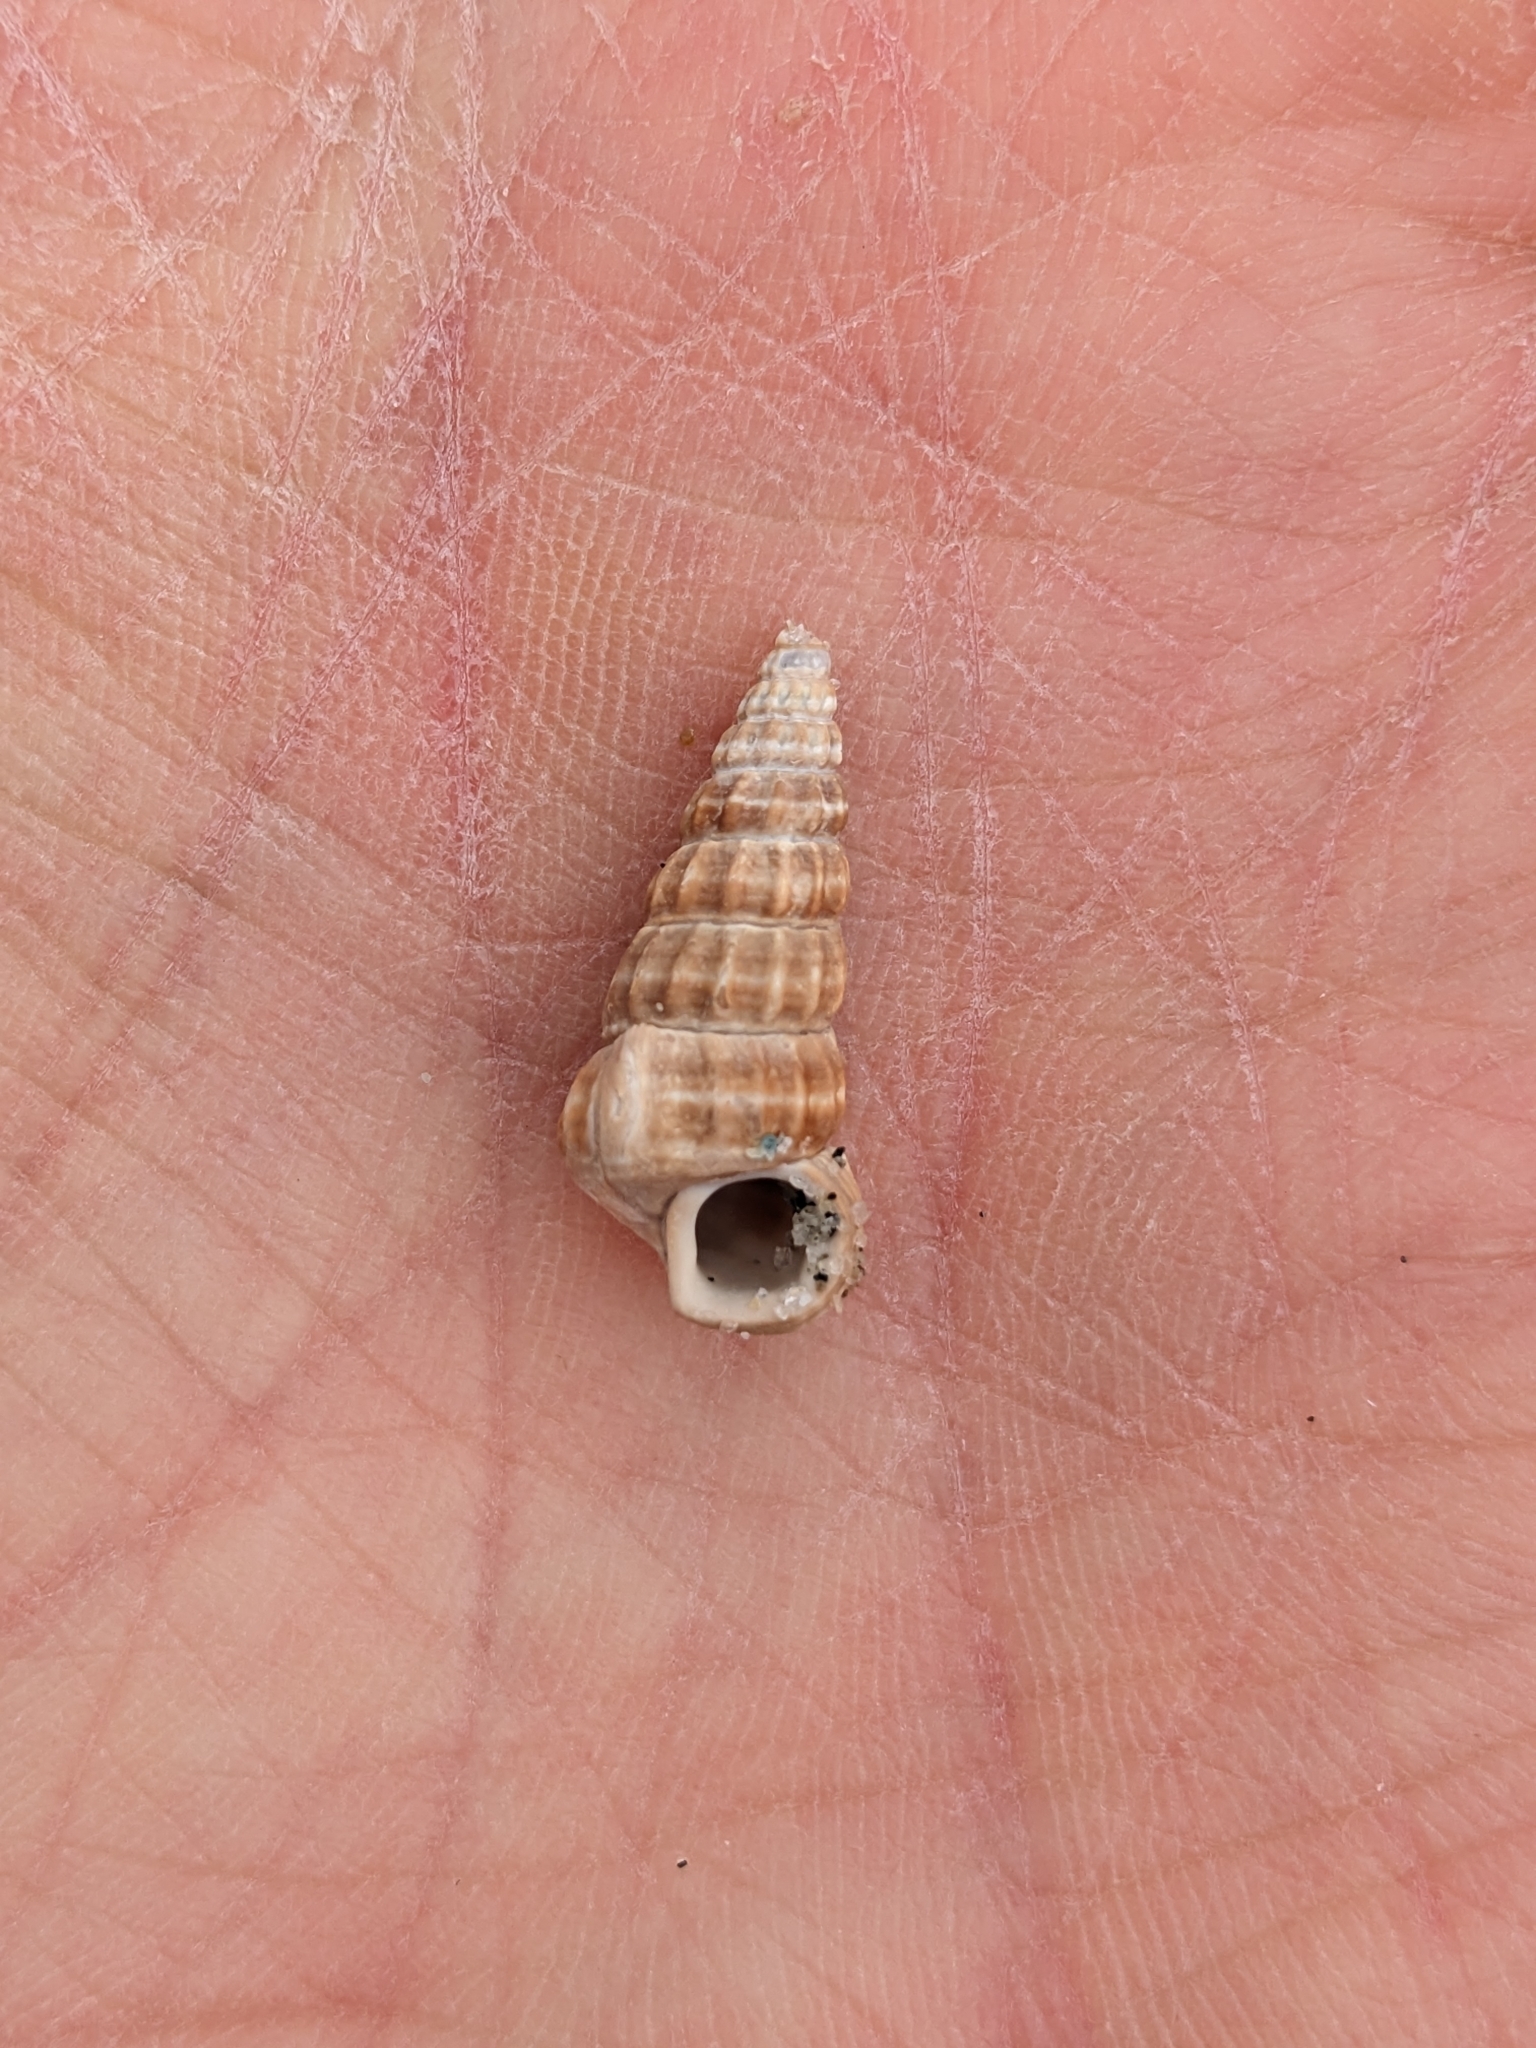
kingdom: Animalia
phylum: Mollusca
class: Gastropoda
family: Potamididae
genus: Cerithideopsis
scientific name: Cerithideopsis californica
